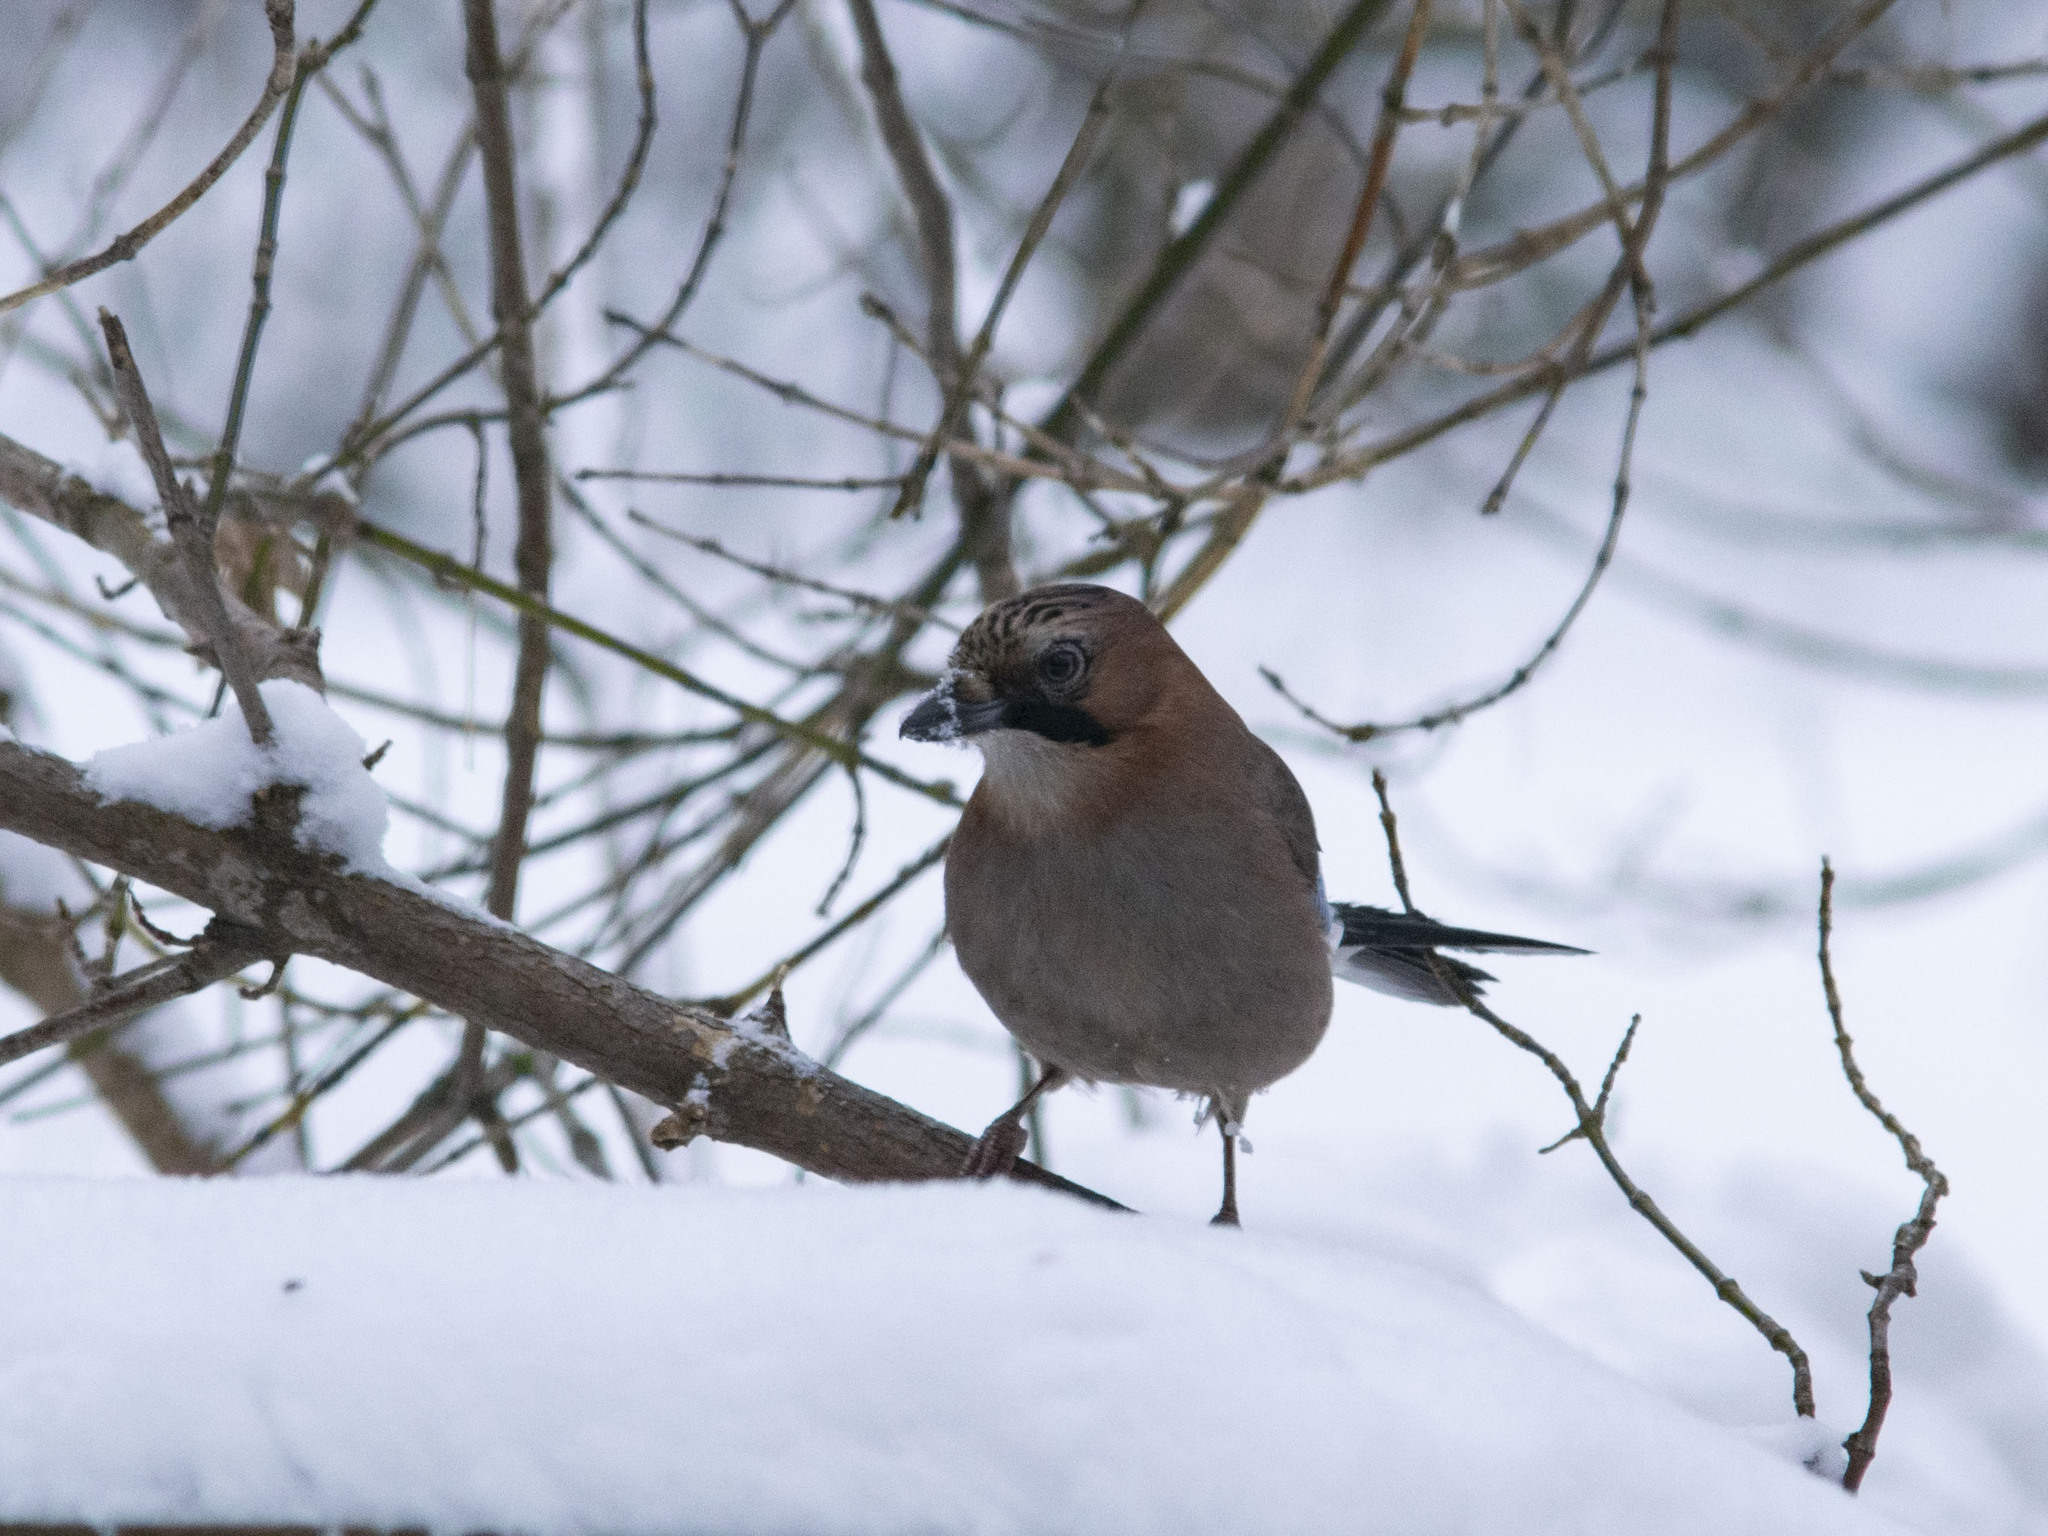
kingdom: Animalia
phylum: Chordata
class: Aves
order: Passeriformes
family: Corvidae
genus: Garrulus
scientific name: Garrulus glandarius
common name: Eurasian jay
